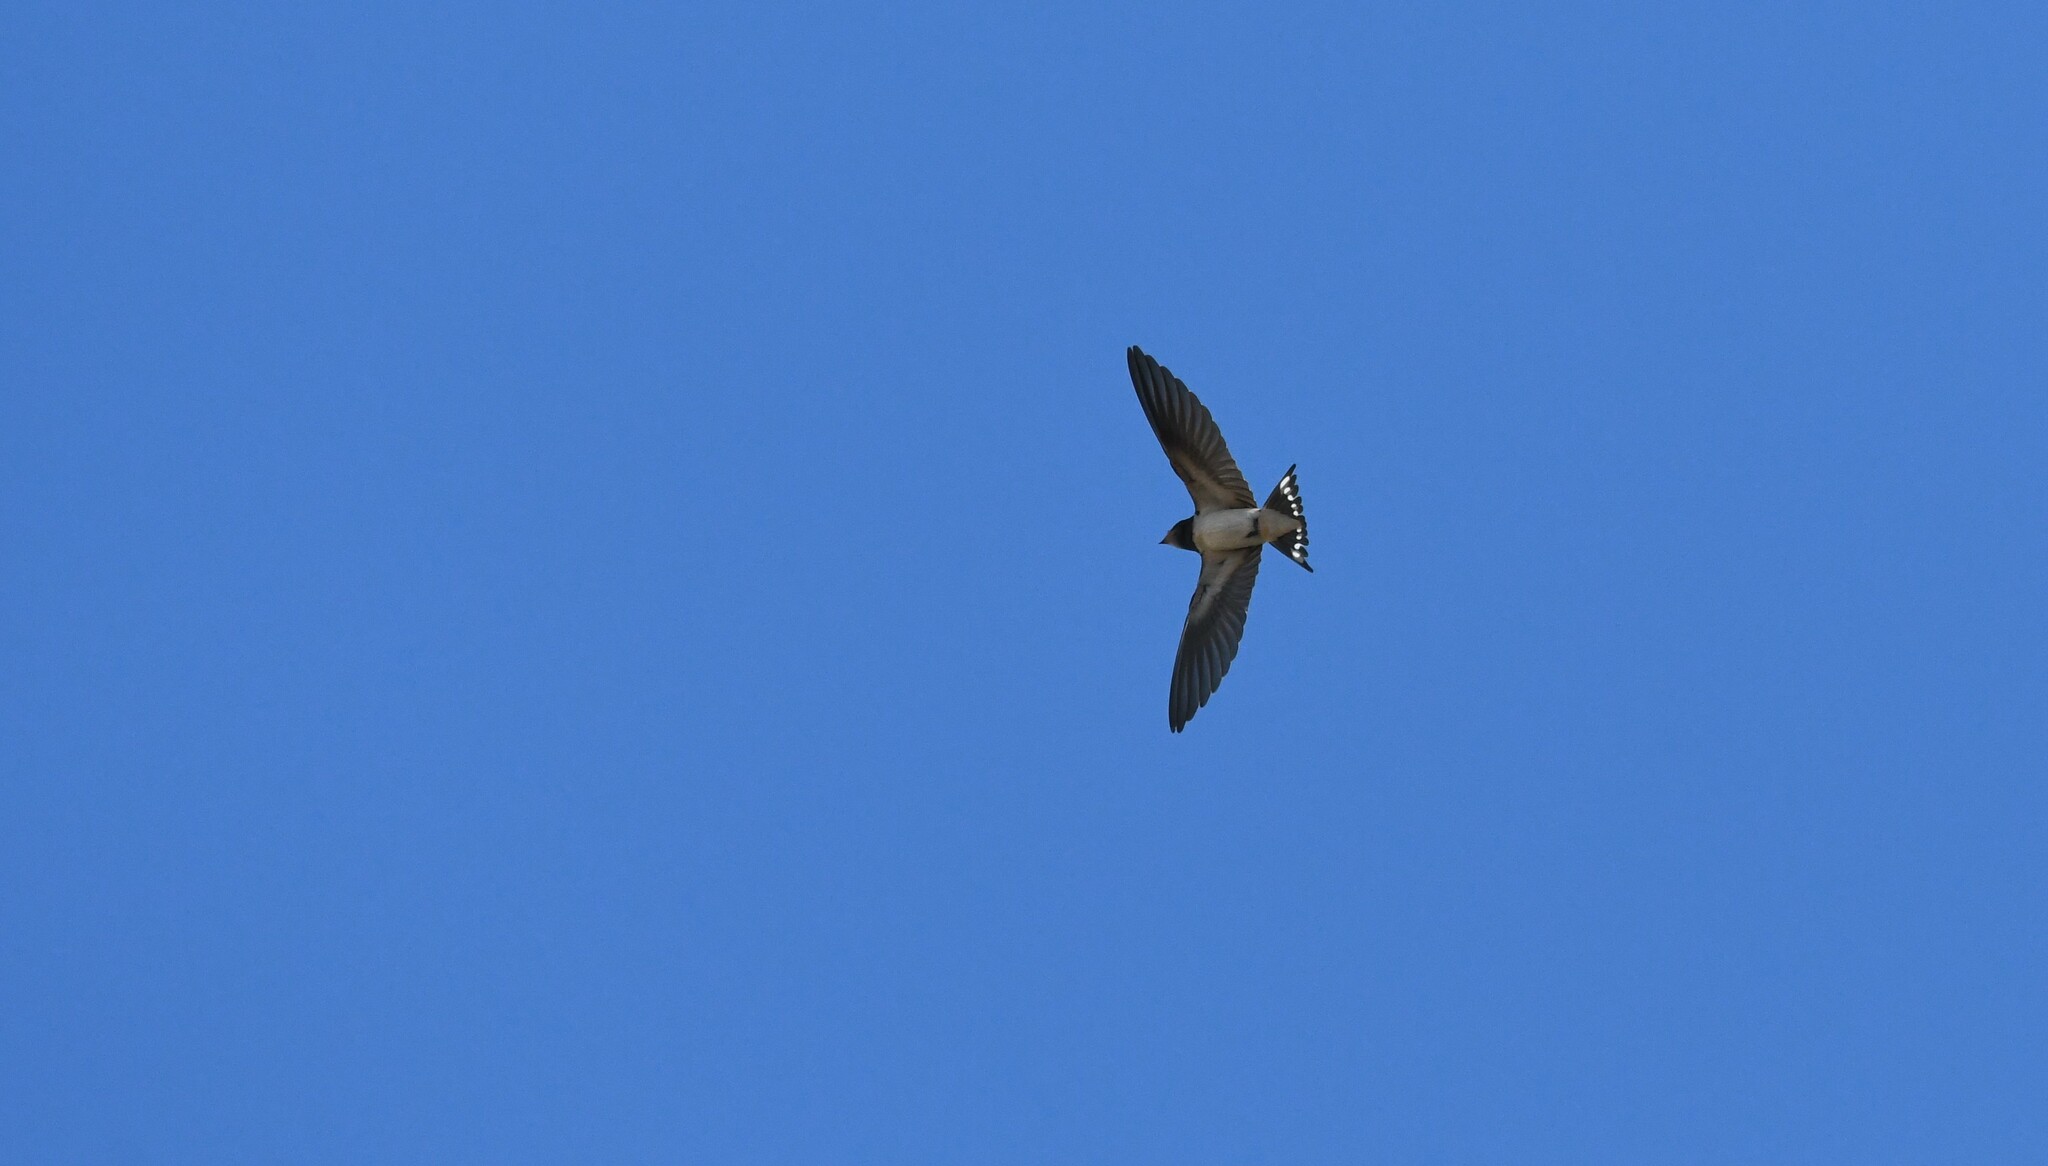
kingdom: Animalia
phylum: Chordata
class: Aves
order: Passeriformes
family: Hirundinidae
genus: Hirundo
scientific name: Hirundo rustica
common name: Barn swallow
